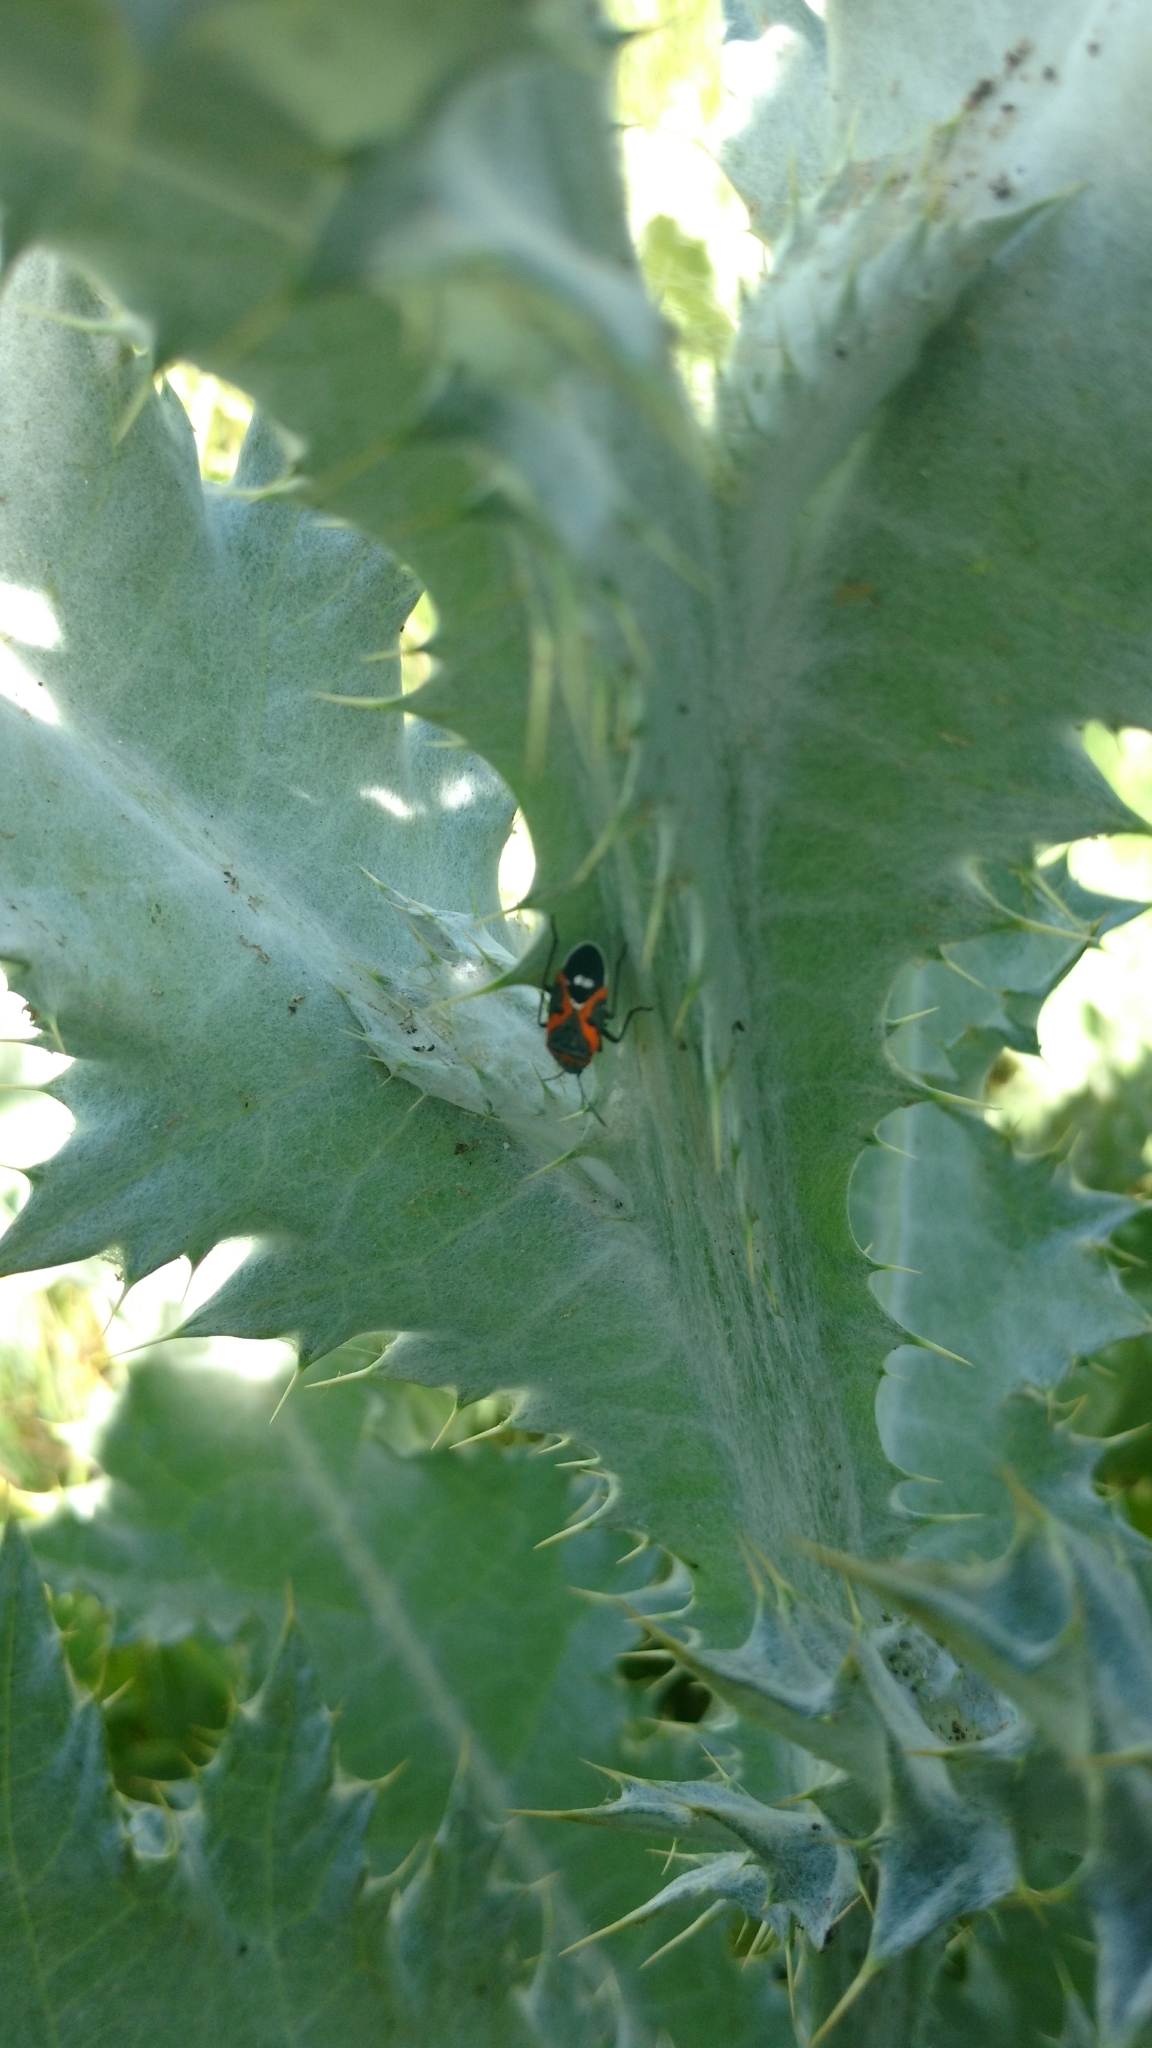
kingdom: Animalia
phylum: Arthropoda
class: Insecta
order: Hemiptera
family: Lygaeidae
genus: Lygaeus
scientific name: Lygaeus kalmii
